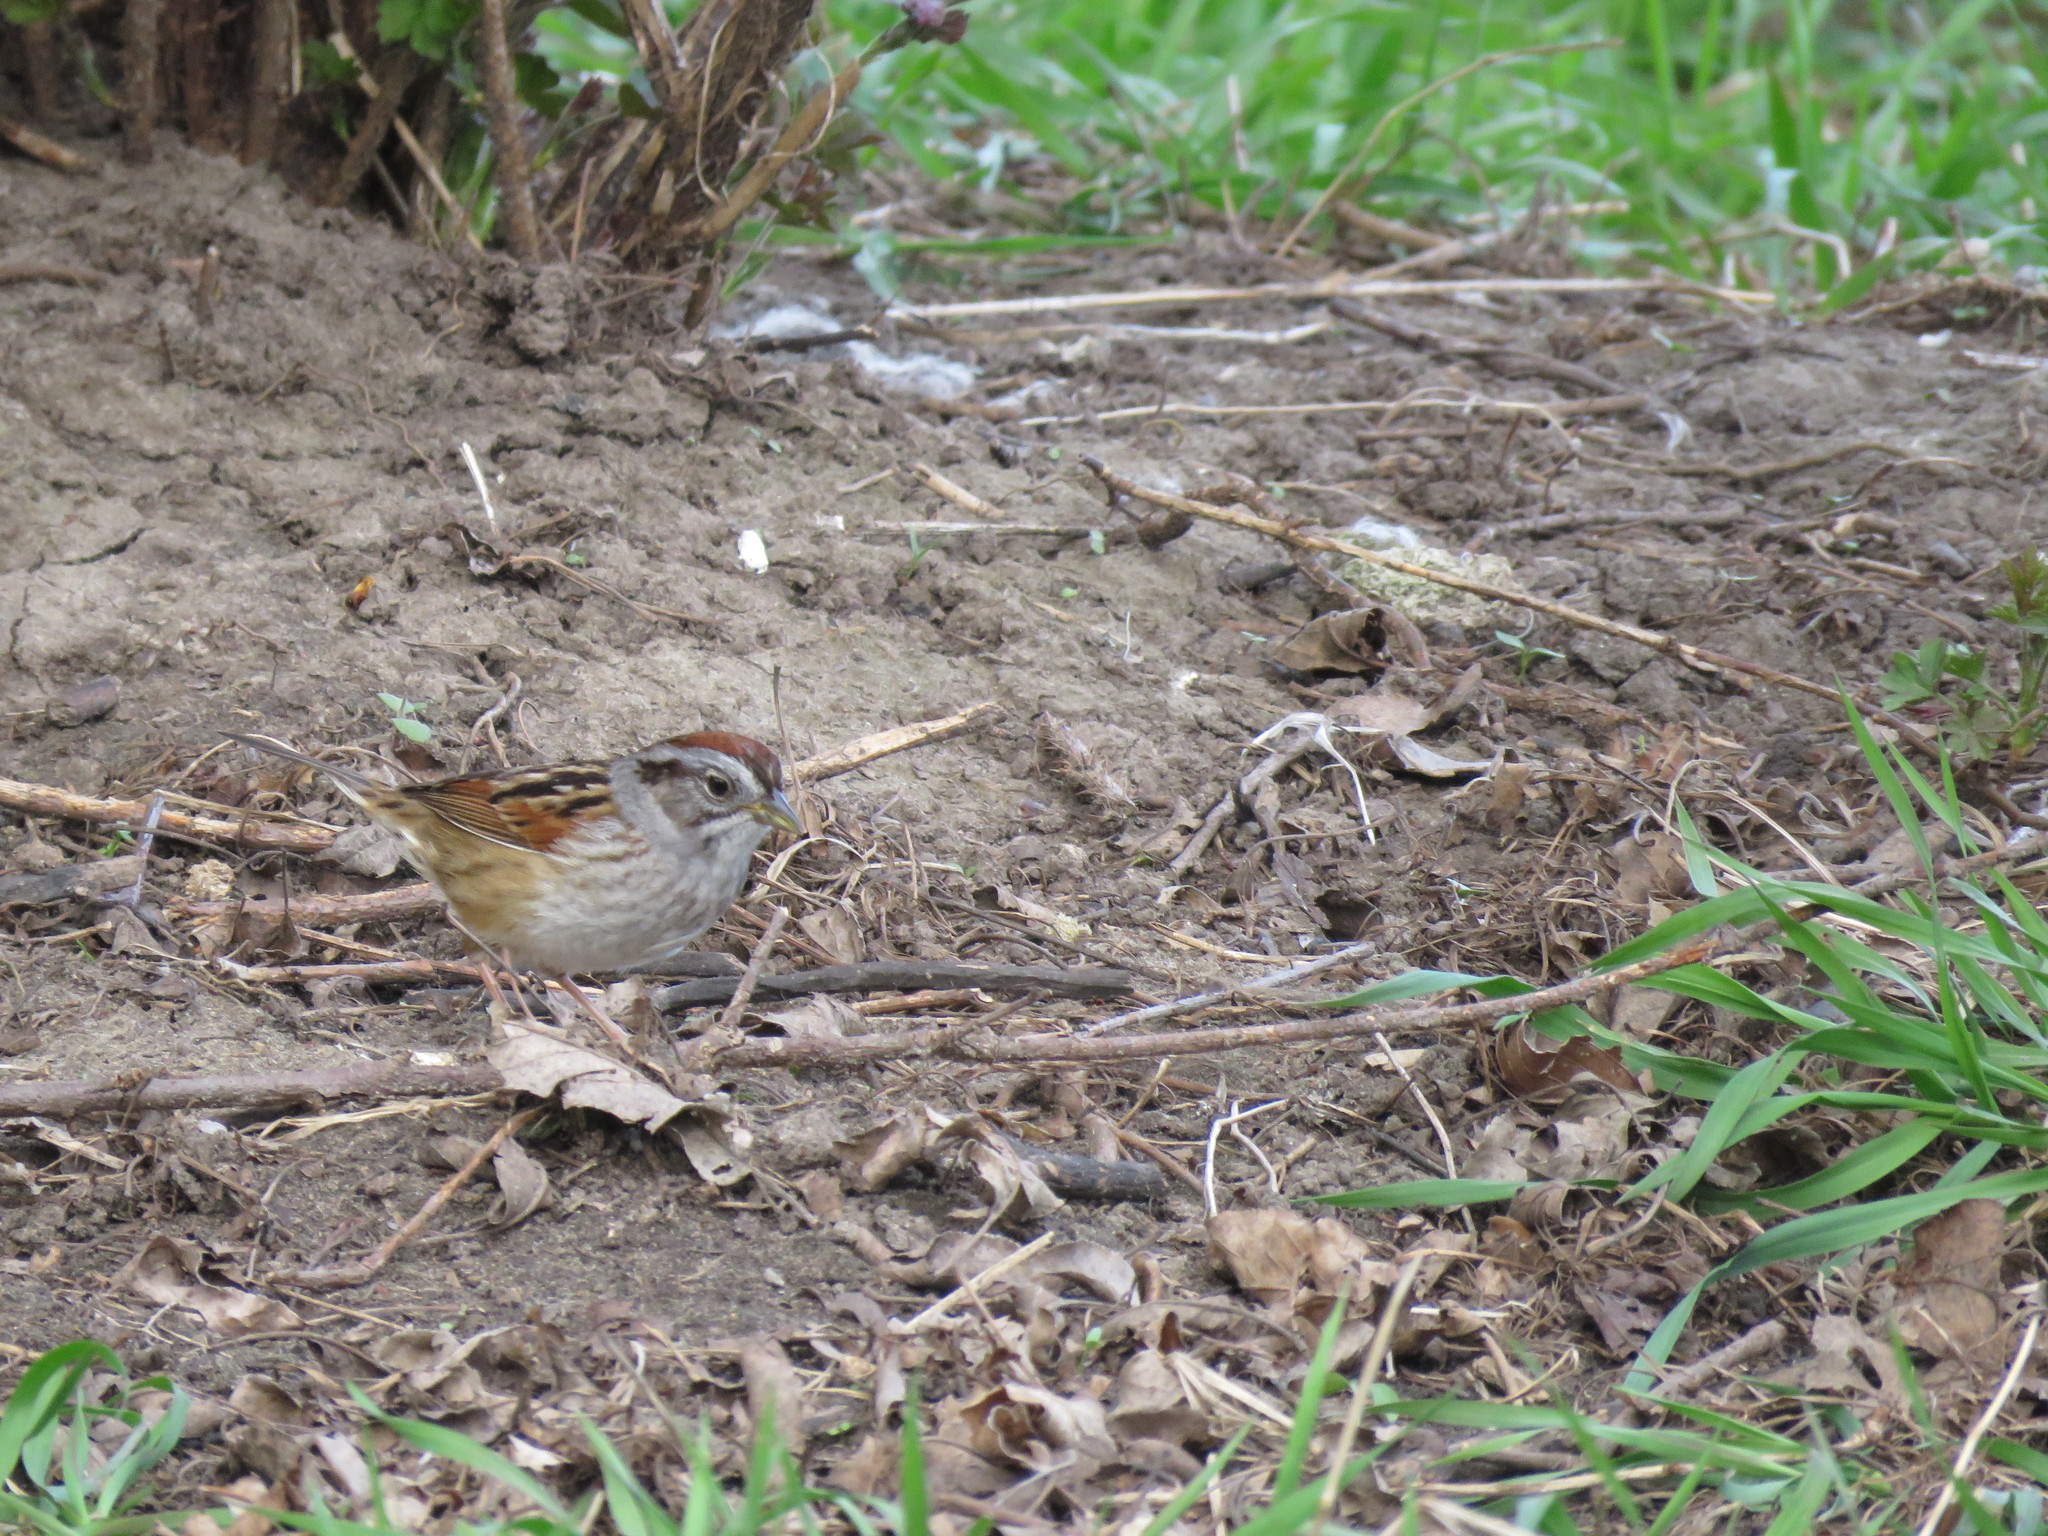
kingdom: Animalia
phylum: Chordata
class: Aves
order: Passeriformes
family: Passerellidae
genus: Melospiza
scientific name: Melospiza georgiana
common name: Swamp sparrow
